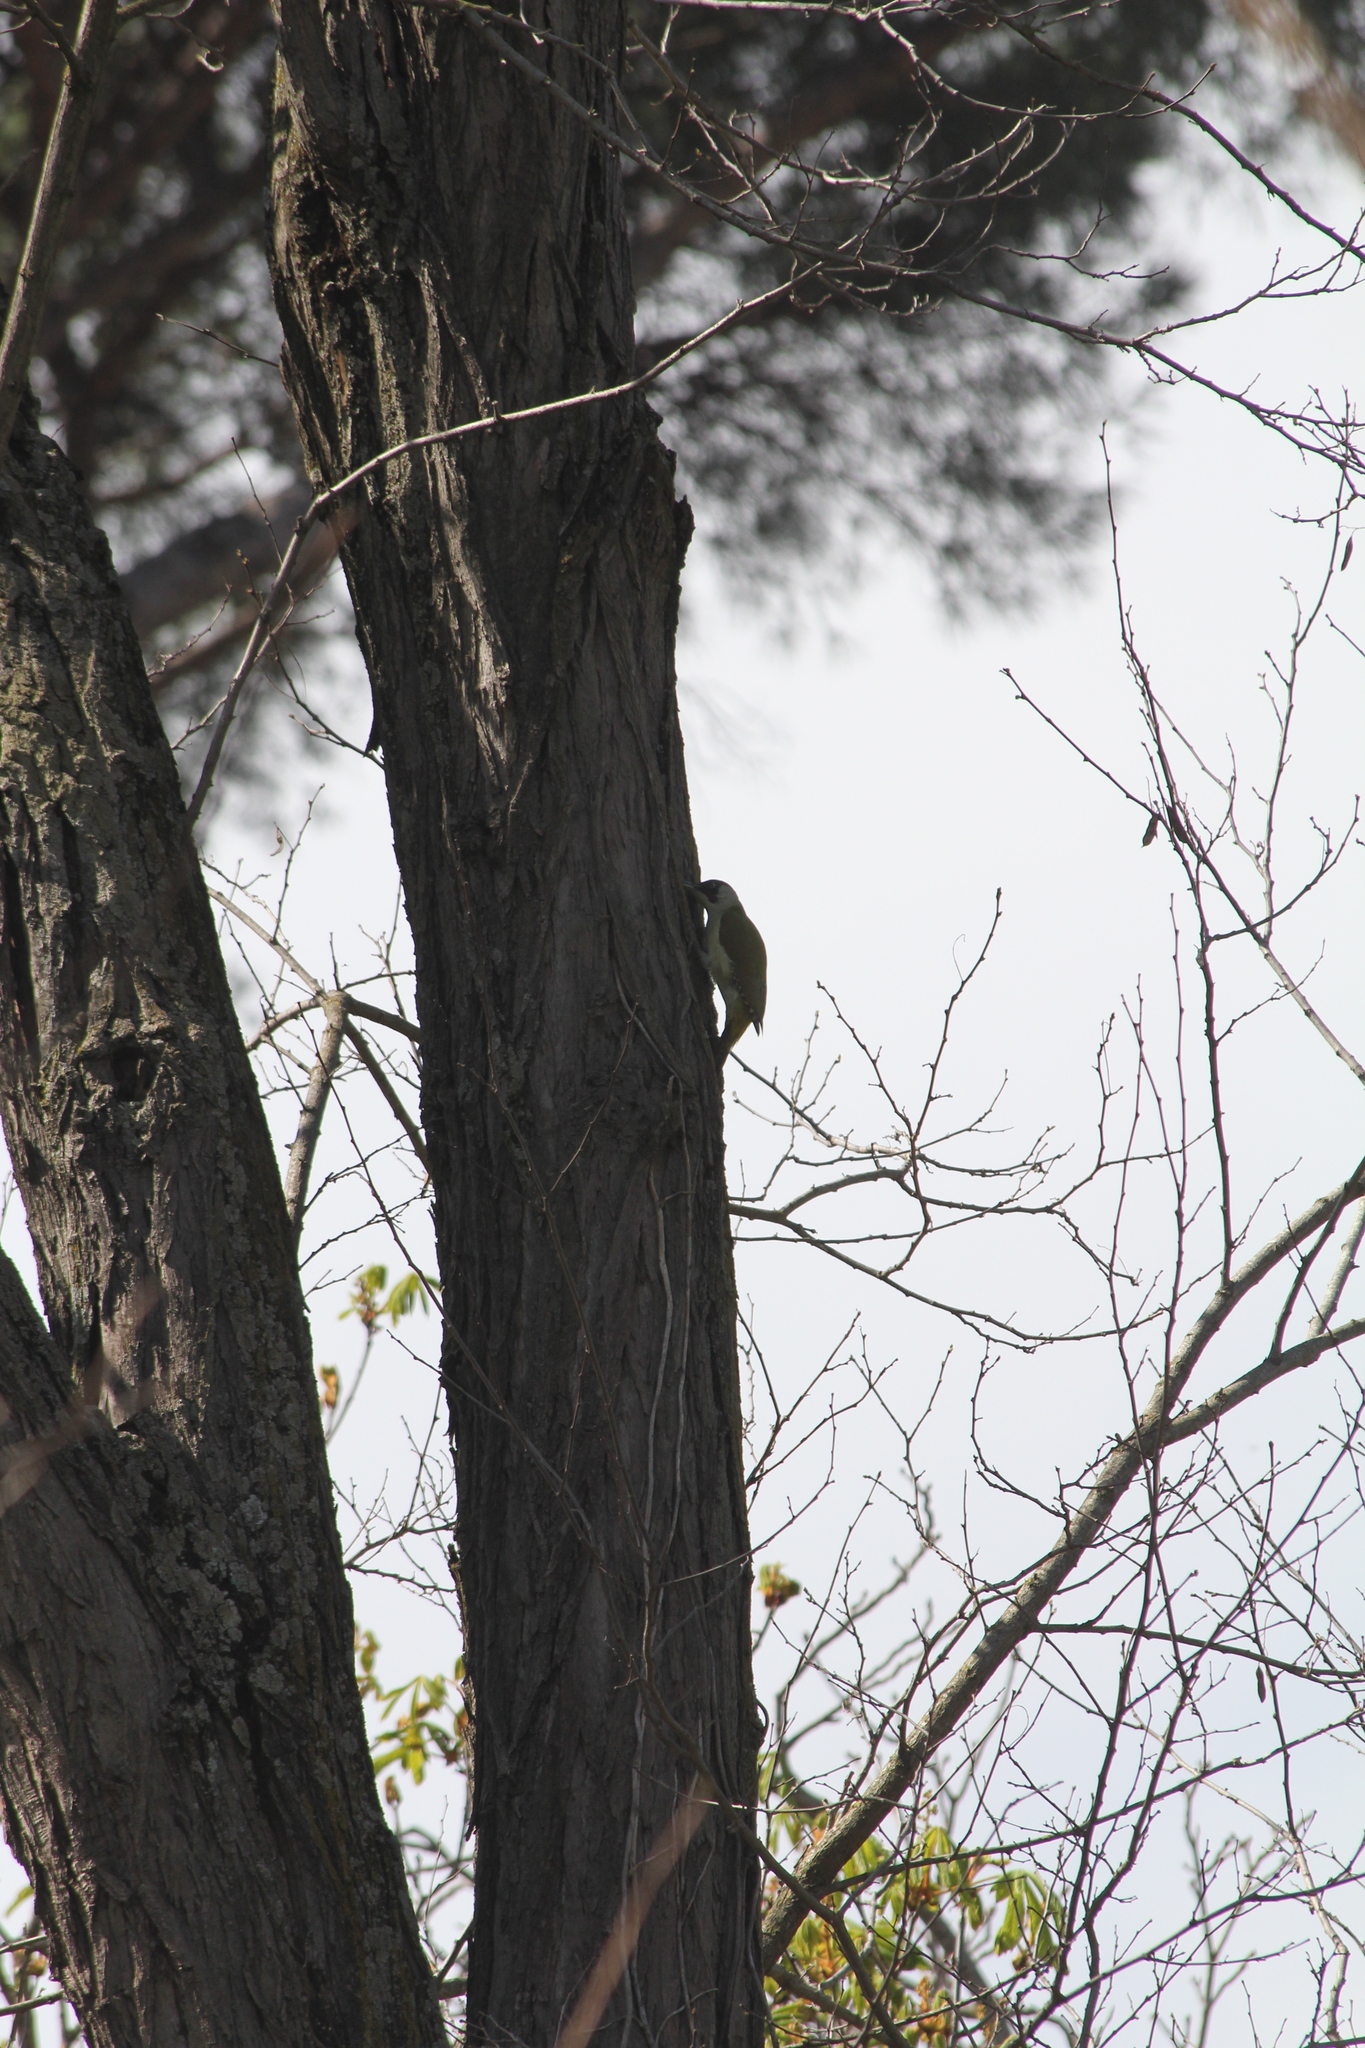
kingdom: Animalia
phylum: Chordata
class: Aves
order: Piciformes
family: Picidae
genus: Picus
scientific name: Picus viridis
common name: European green woodpecker
